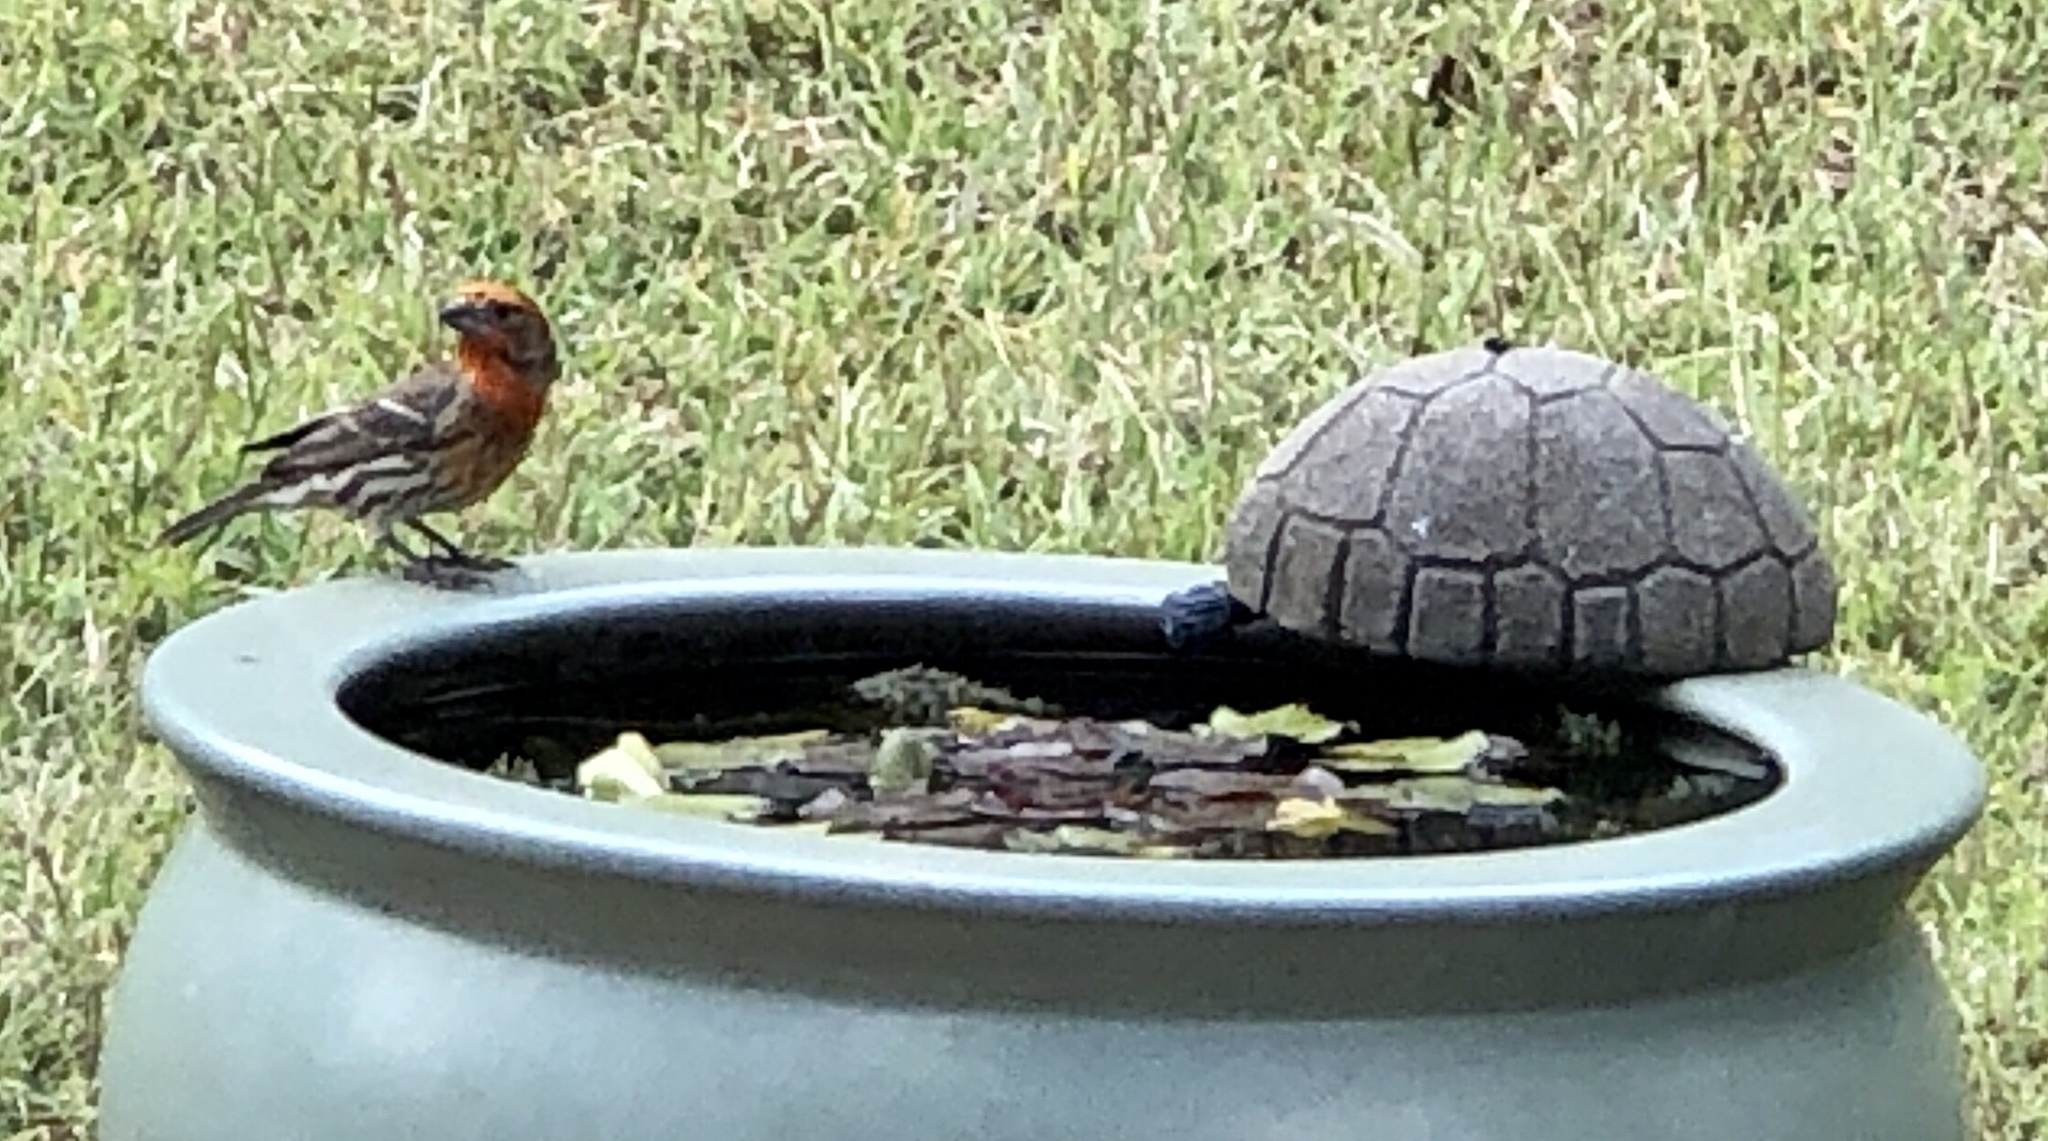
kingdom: Animalia
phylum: Chordata
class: Aves
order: Passeriformes
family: Fringillidae
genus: Haemorhous
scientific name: Haemorhous mexicanus
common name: House finch
